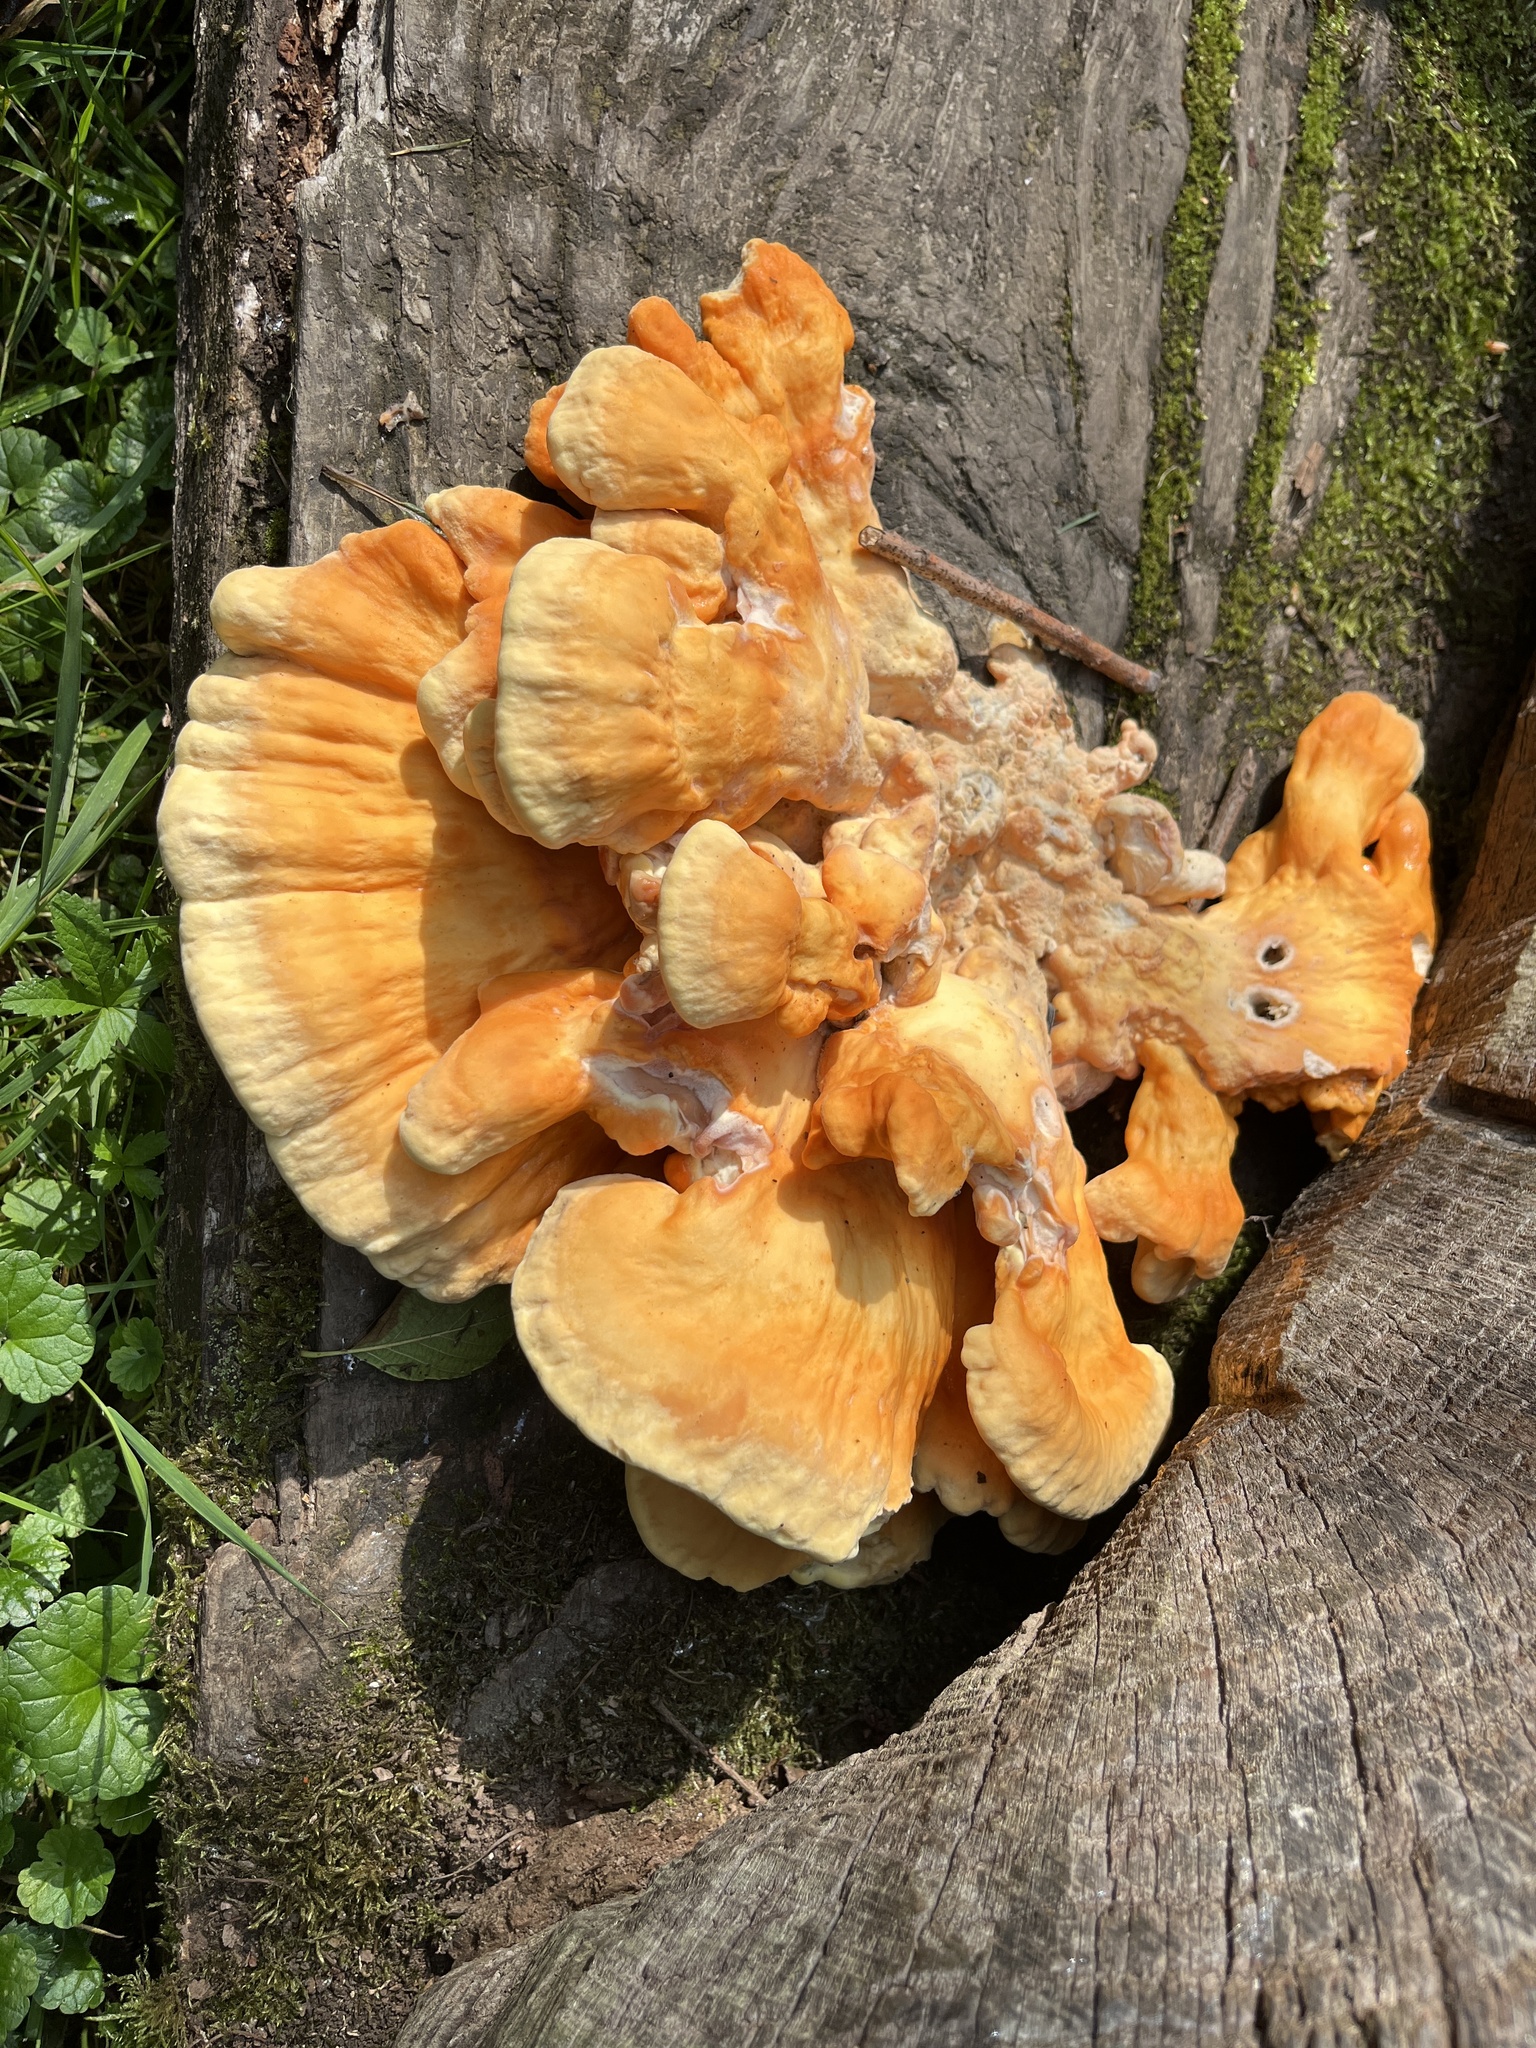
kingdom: Fungi
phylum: Basidiomycota
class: Agaricomycetes
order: Polyporales
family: Laetiporaceae
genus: Laetiporus
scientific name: Laetiporus sulphureus
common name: Chicken of the woods
